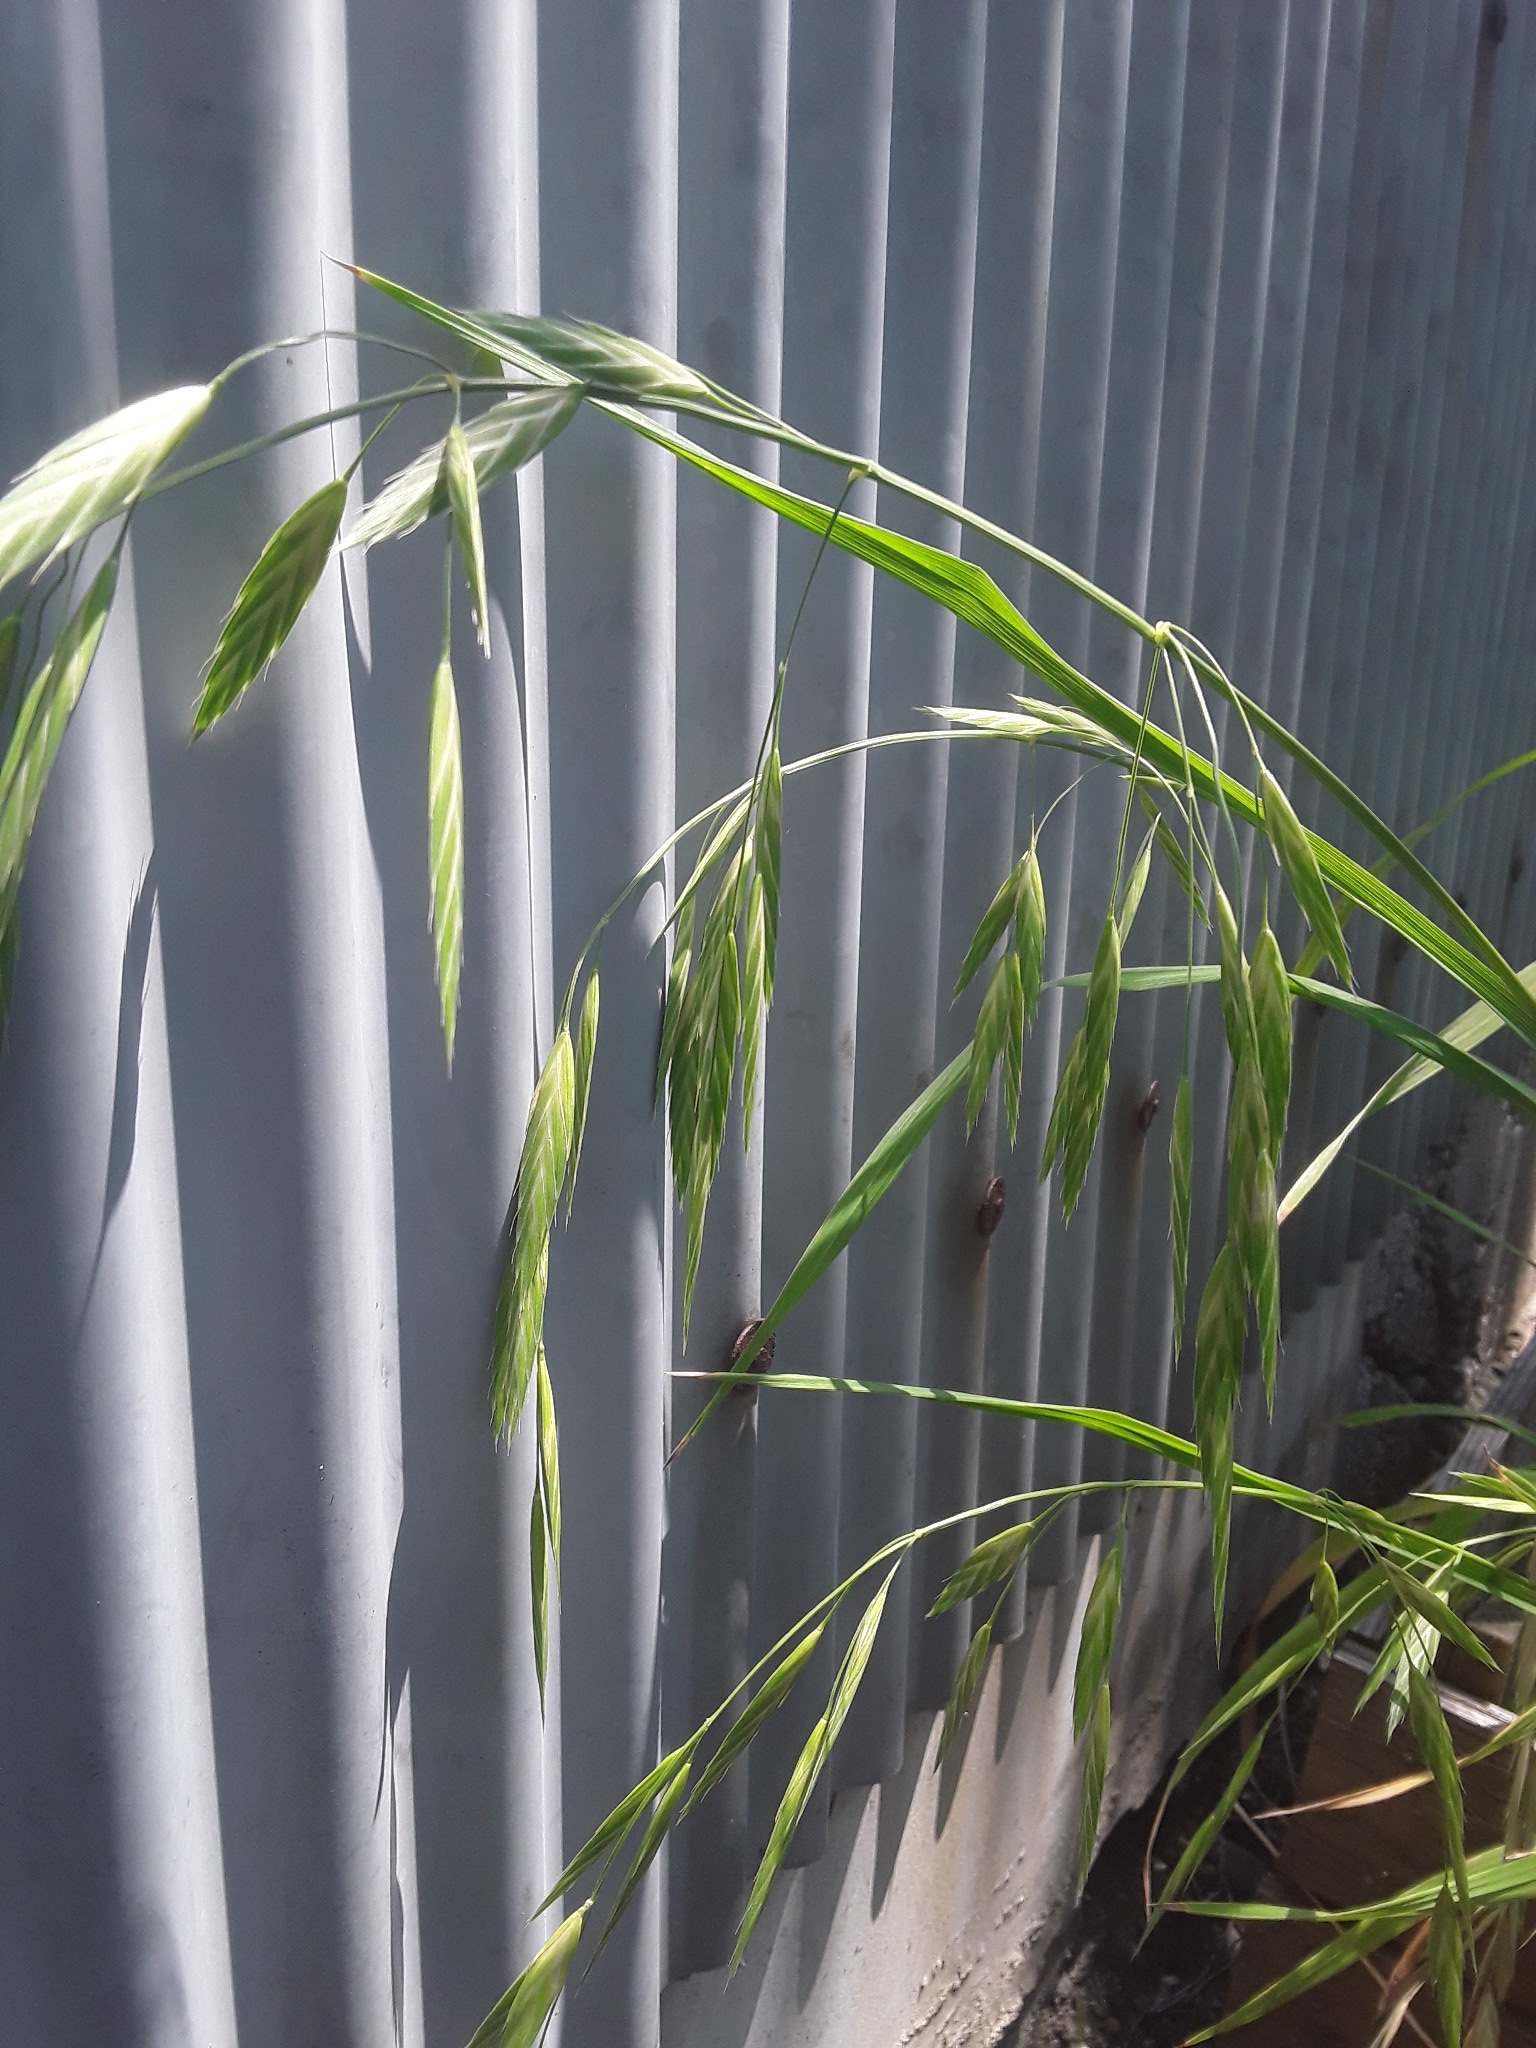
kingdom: Plantae
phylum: Tracheophyta
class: Liliopsida
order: Poales
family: Poaceae
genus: Bromus
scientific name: Bromus catharticus
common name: Rescuegrass
